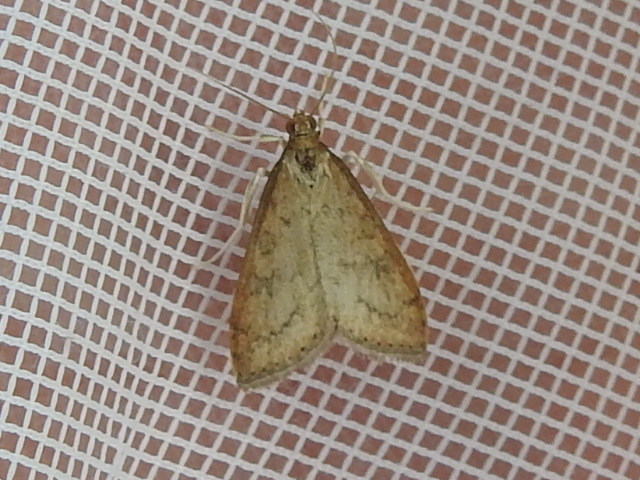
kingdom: Animalia
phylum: Arthropoda
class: Insecta
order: Lepidoptera
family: Crambidae
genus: Udea
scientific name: Udea rubigalis
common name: Celery leaftier moth
